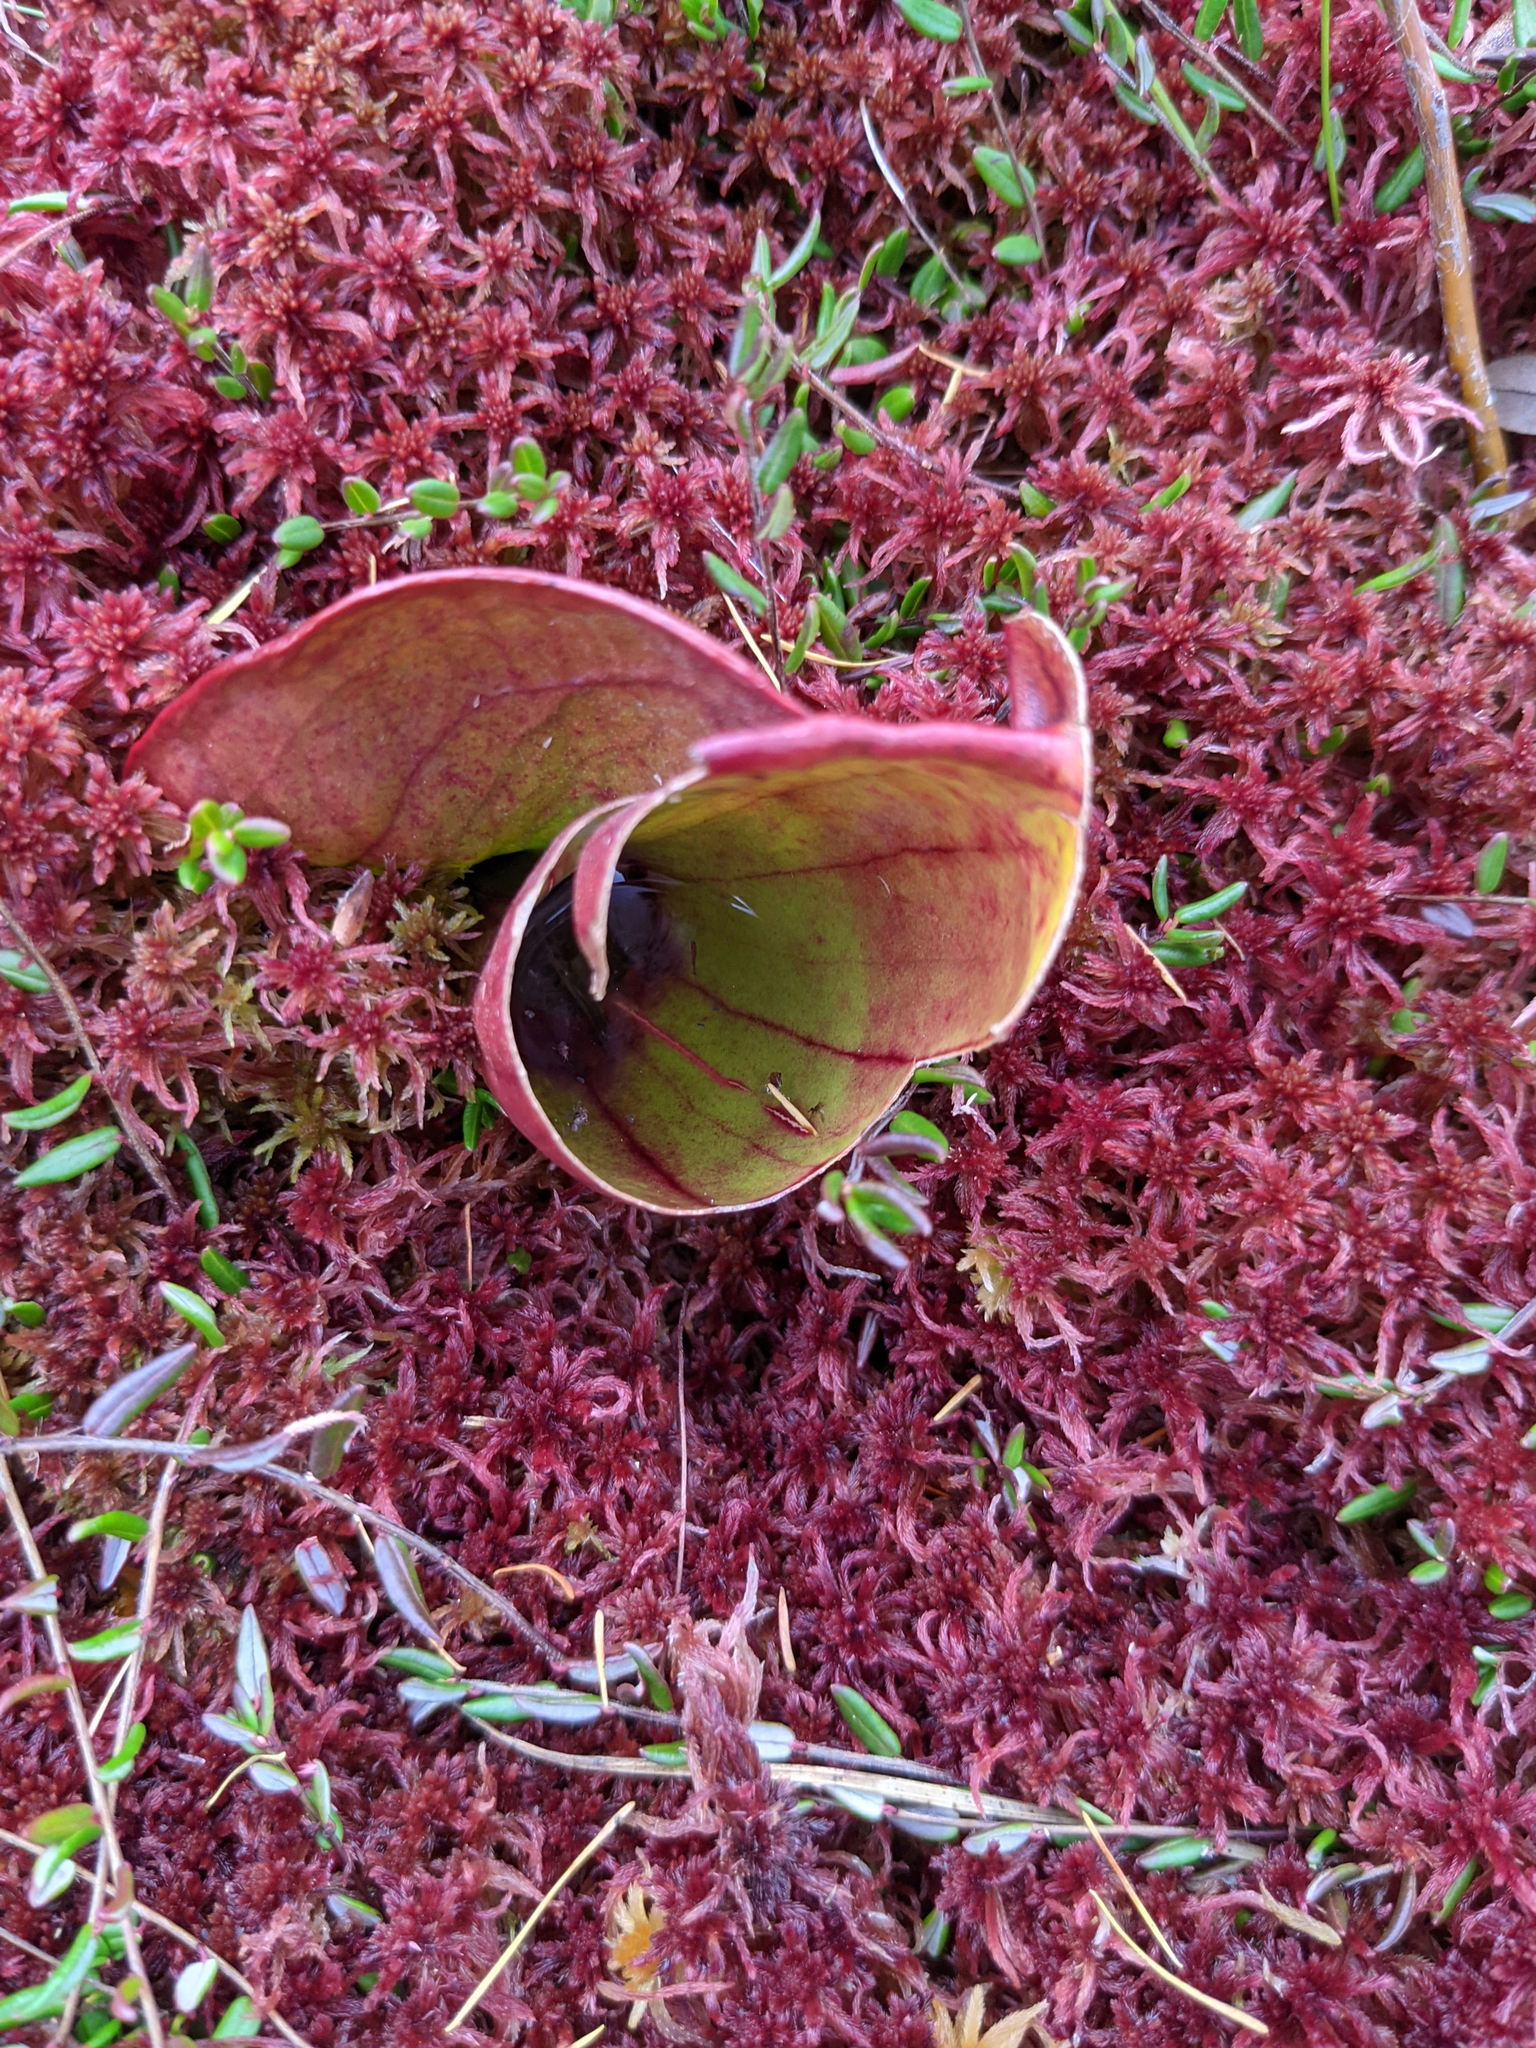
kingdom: Plantae
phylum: Tracheophyta
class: Magnoliopsida
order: Ericales
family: Sarraceniaceae
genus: Sarracenia
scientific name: Sarracenia purpurea
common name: Pitcherplant
